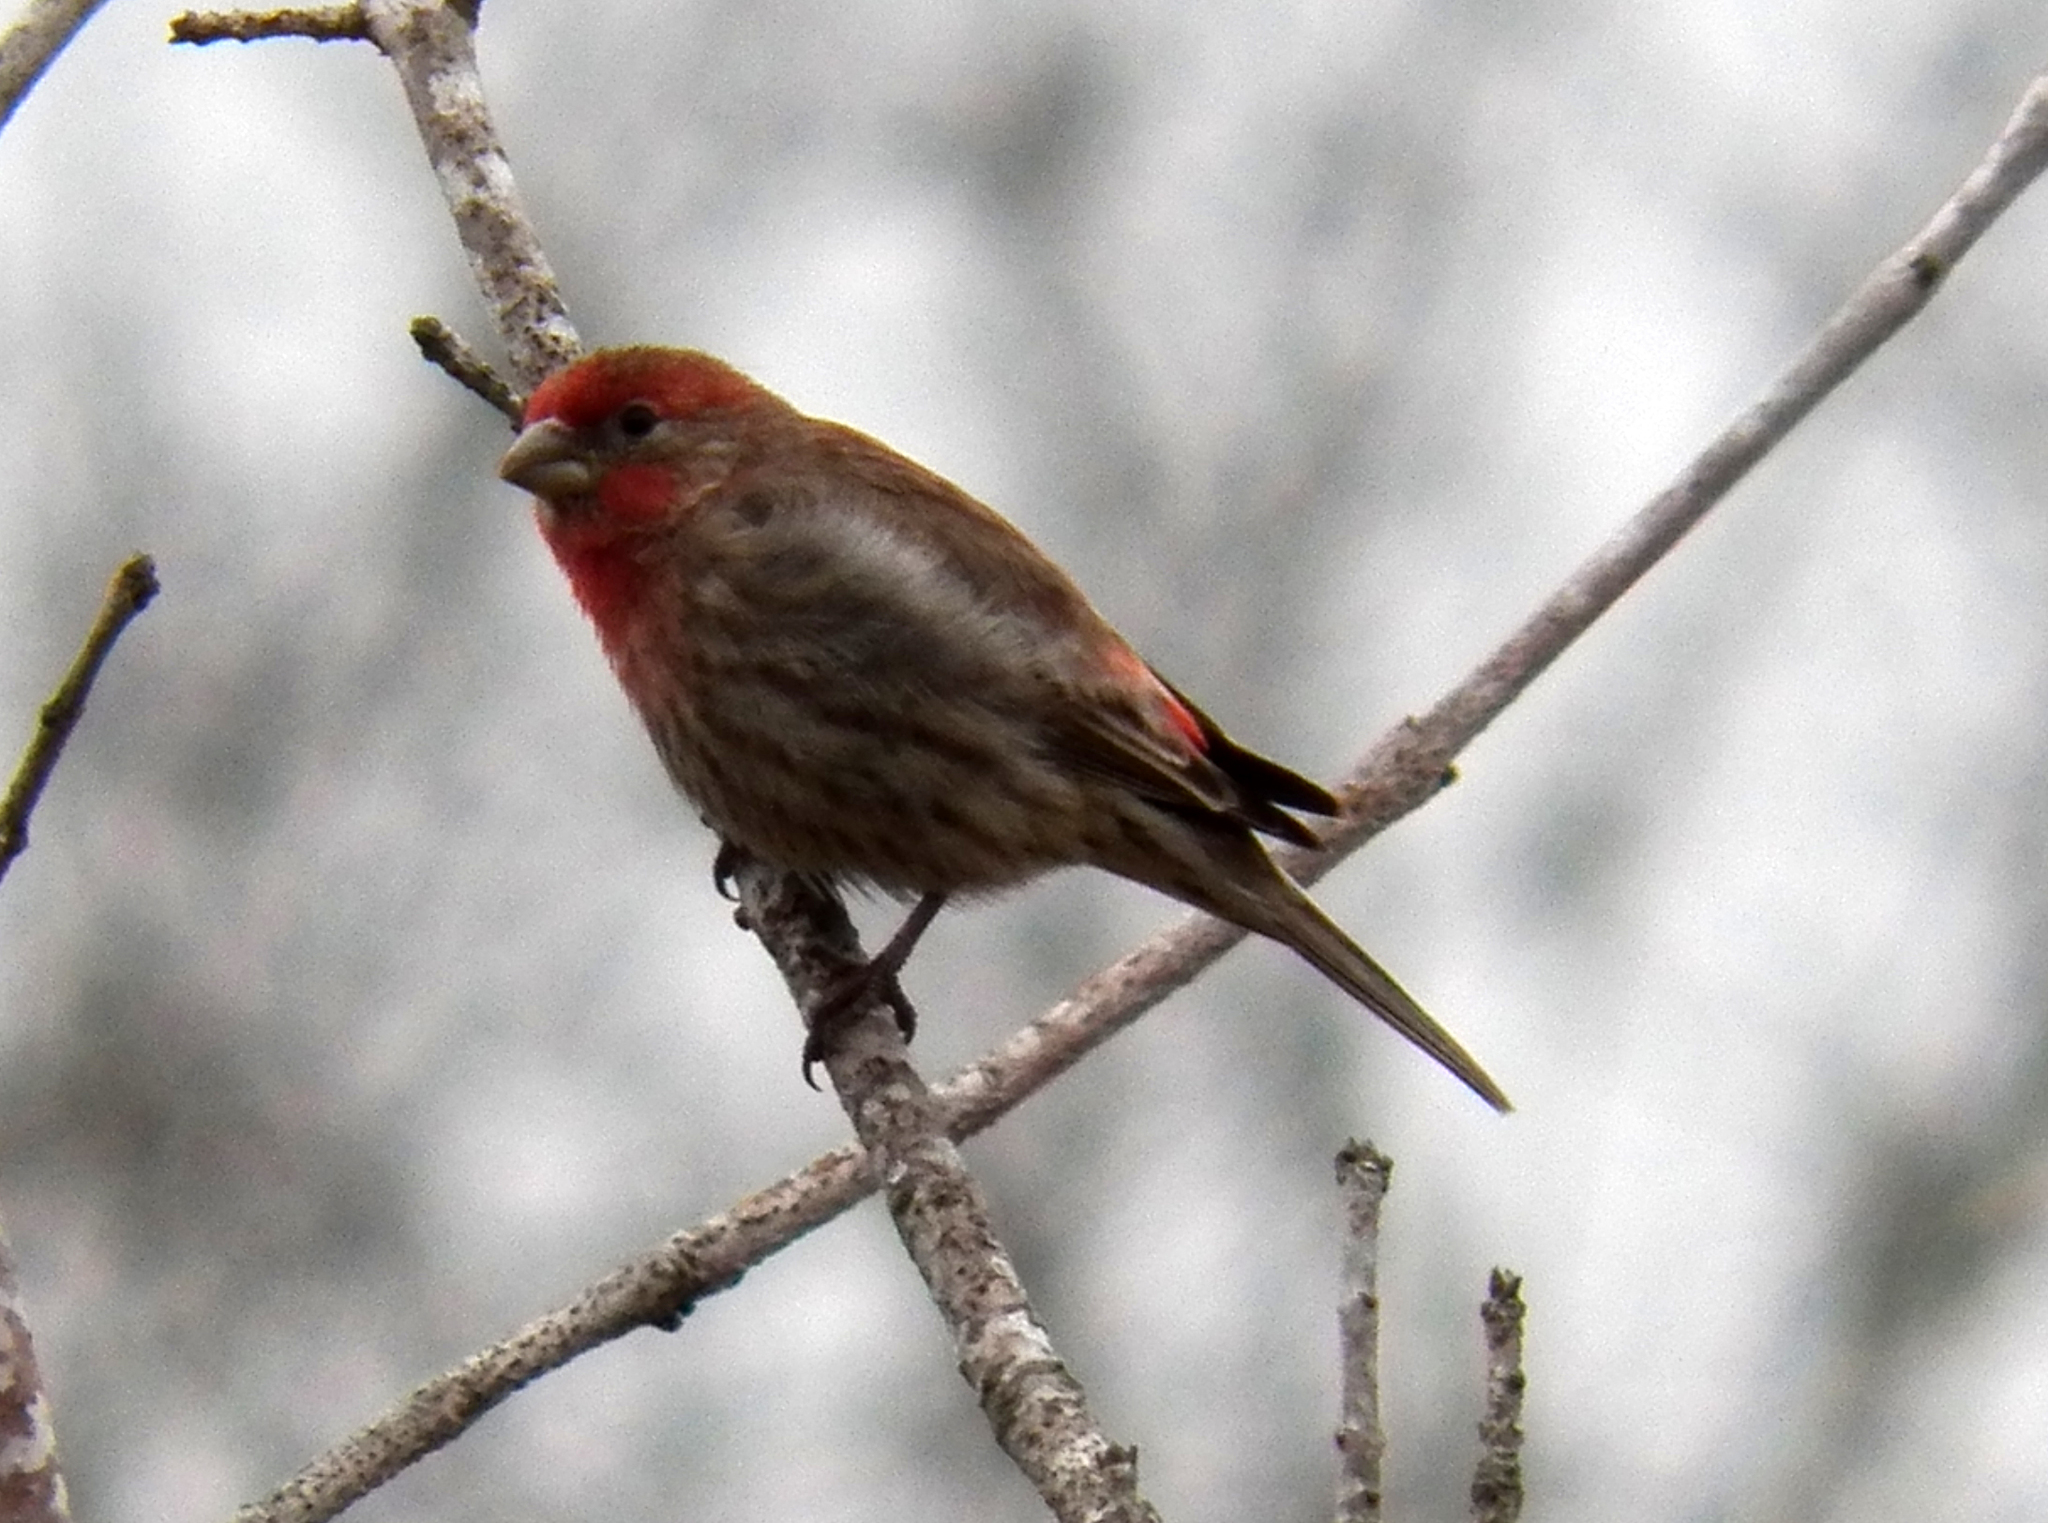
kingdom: Animalia
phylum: Chordata
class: Aves
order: Passeriformes
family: Fringillidae
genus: Haemorhous
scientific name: Haemorhous mexicanus
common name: House finch
